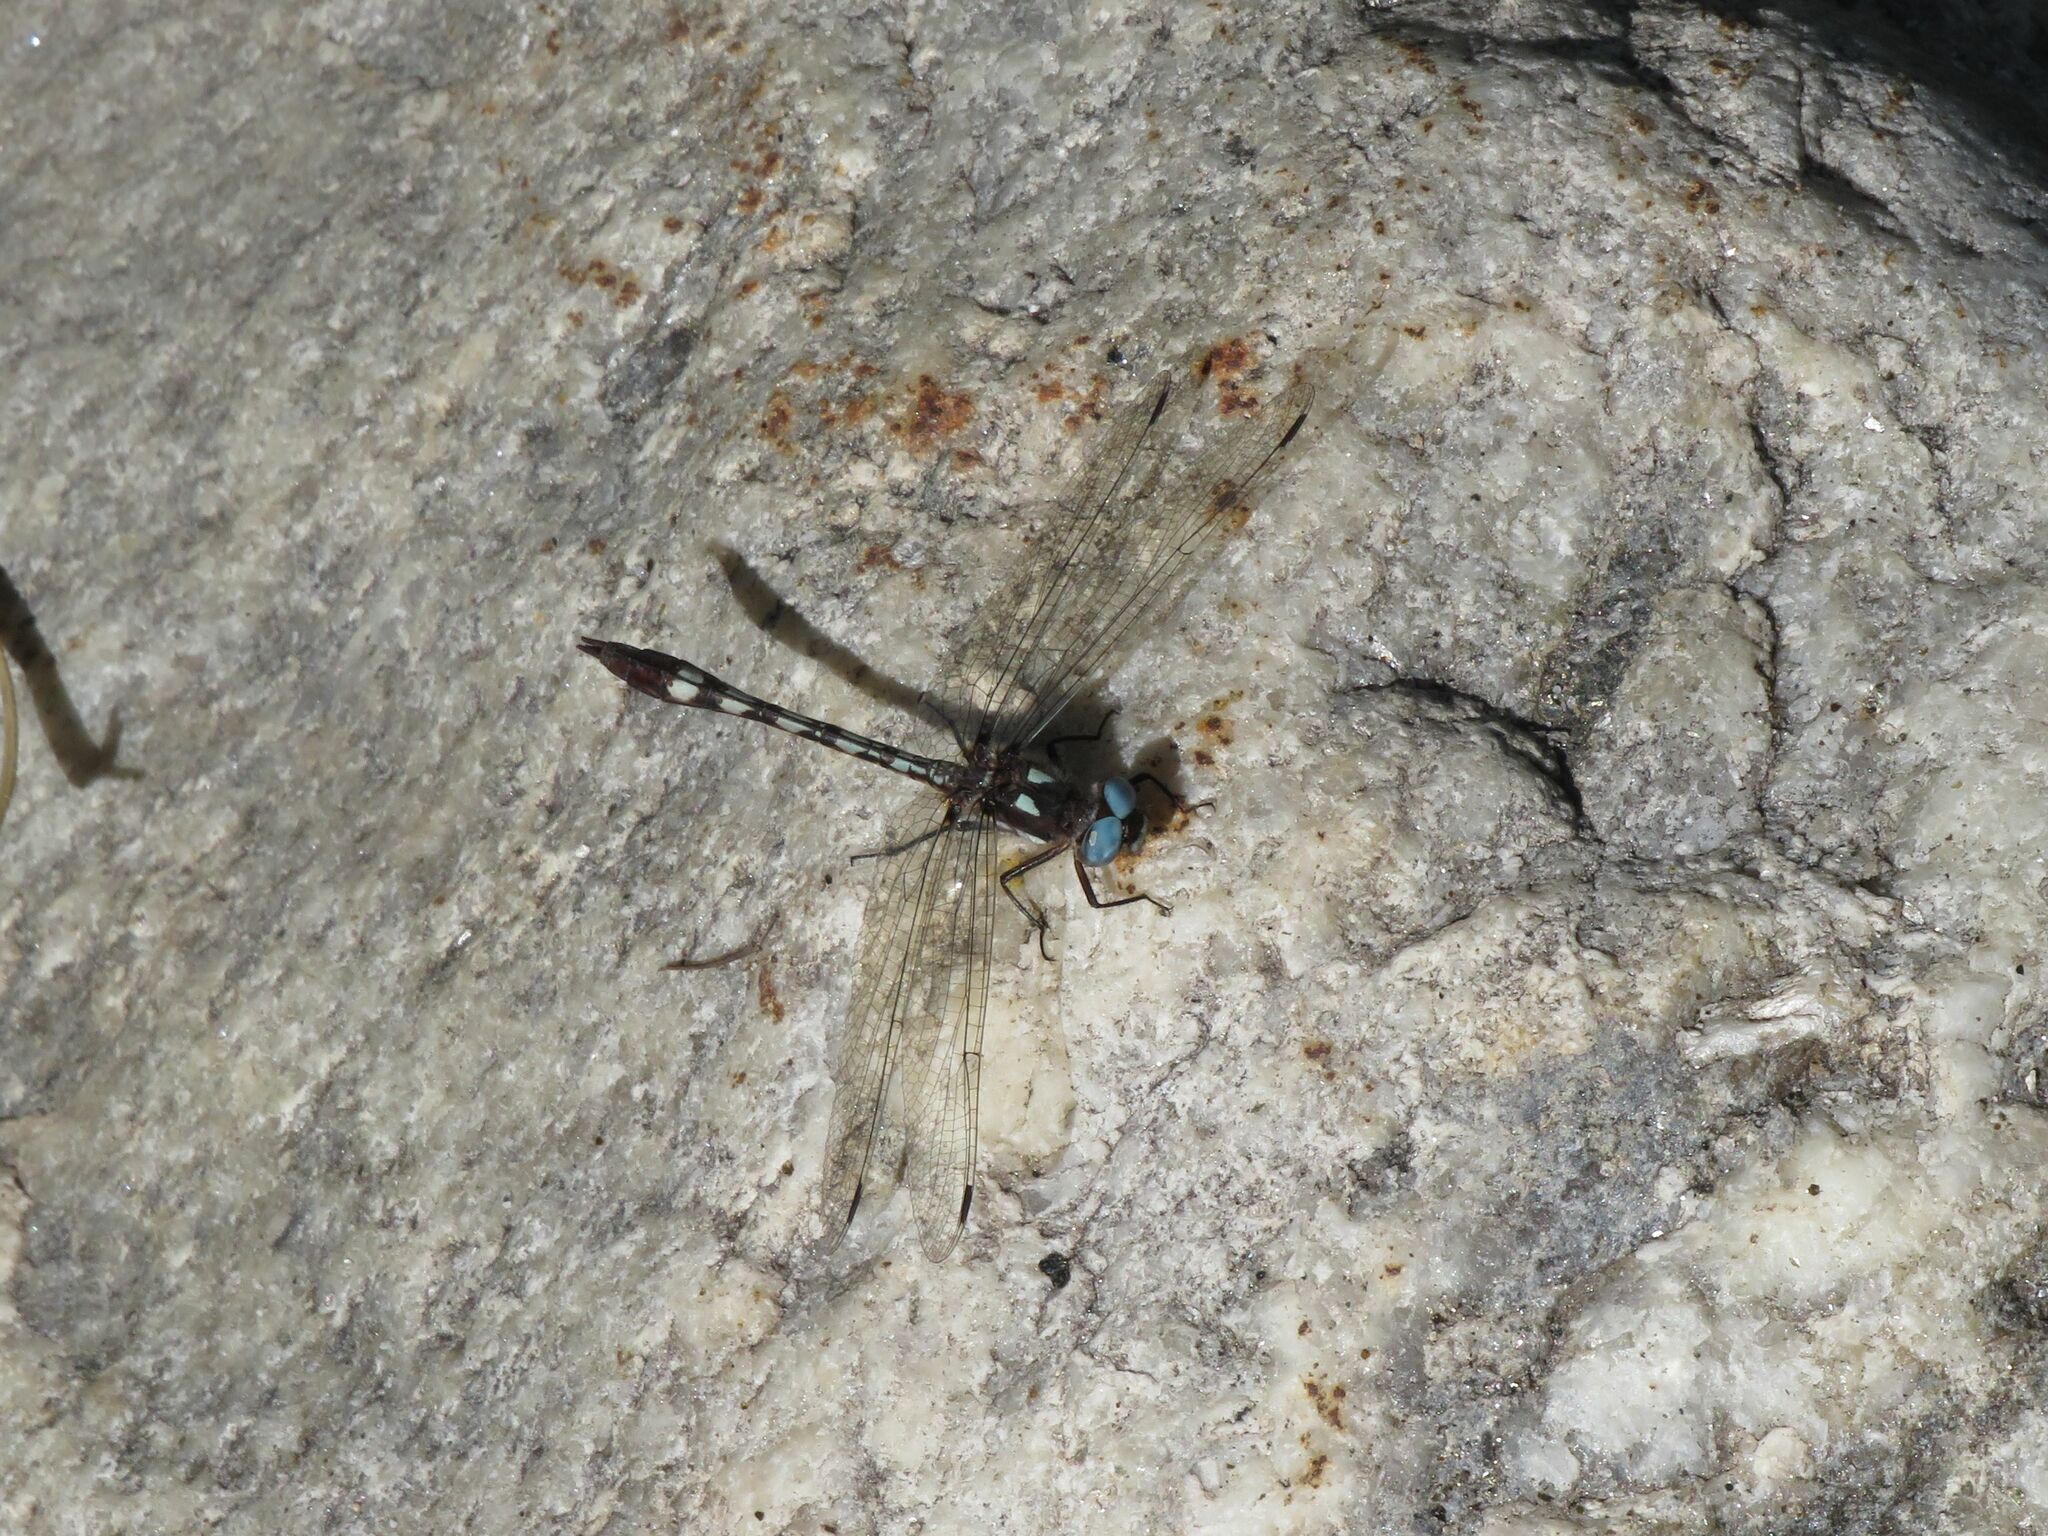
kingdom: Animalia
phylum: Arthropoda
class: Insecta
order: Odonata
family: Libellulidae
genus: Macrothemis
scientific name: Macrothemis imitans
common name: Ivory-striped sylph
